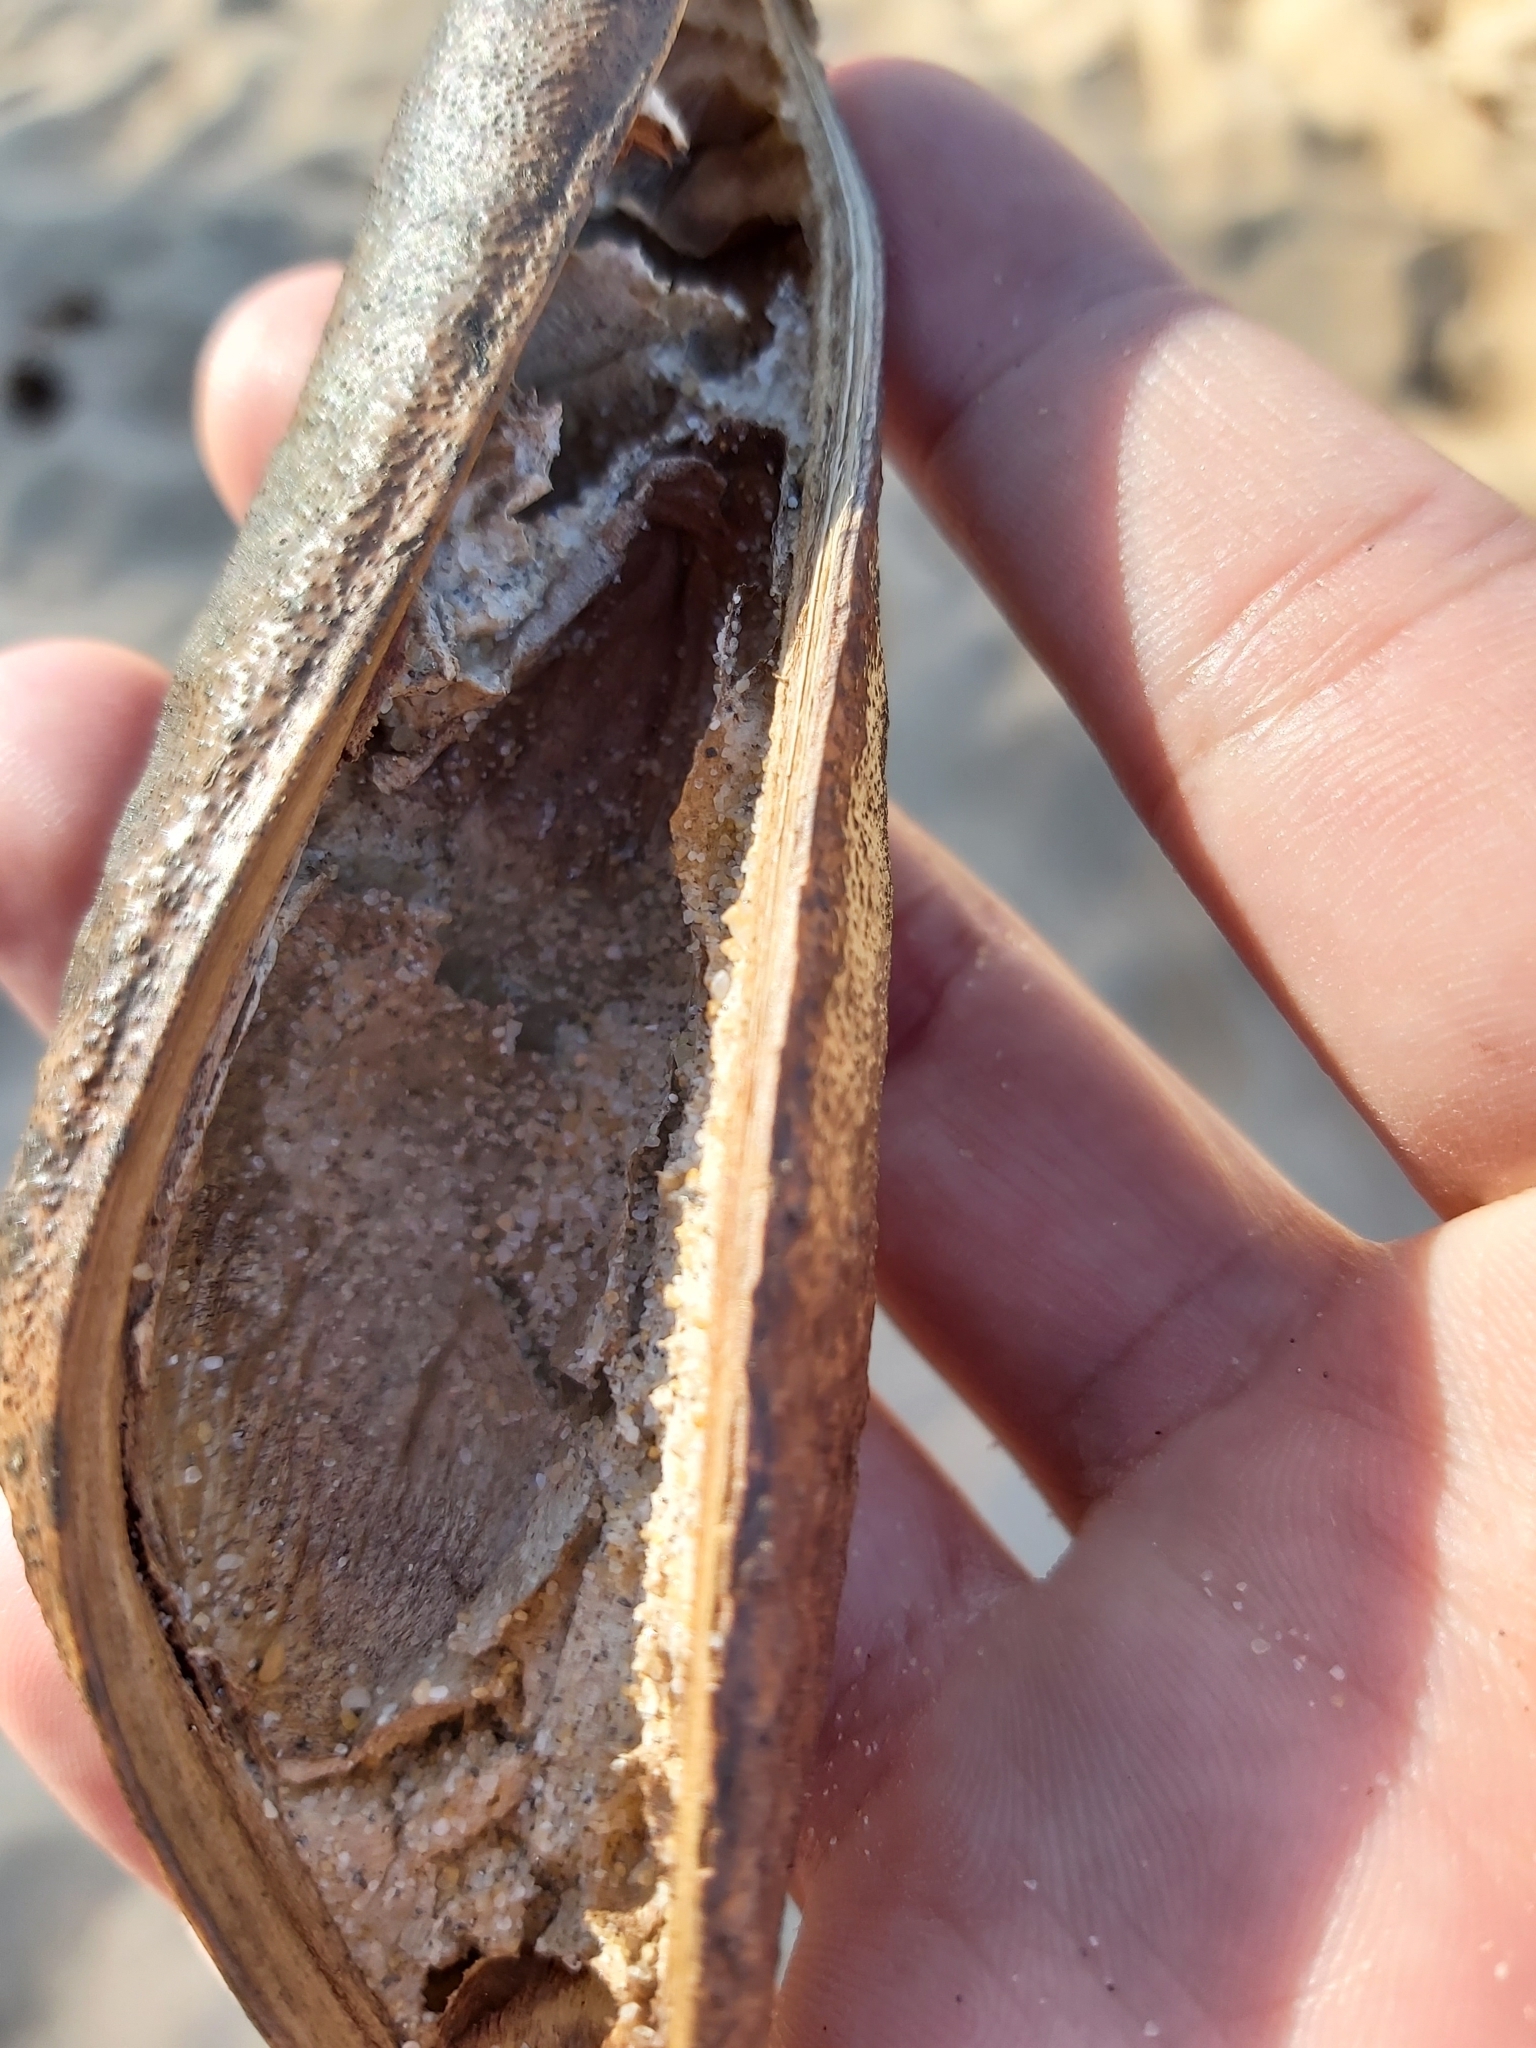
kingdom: Plantae
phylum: Tracheophyta
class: Magnoliopsida
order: Fabales
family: Fabaceae
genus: Castanospermum
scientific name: Castanospermum australe
